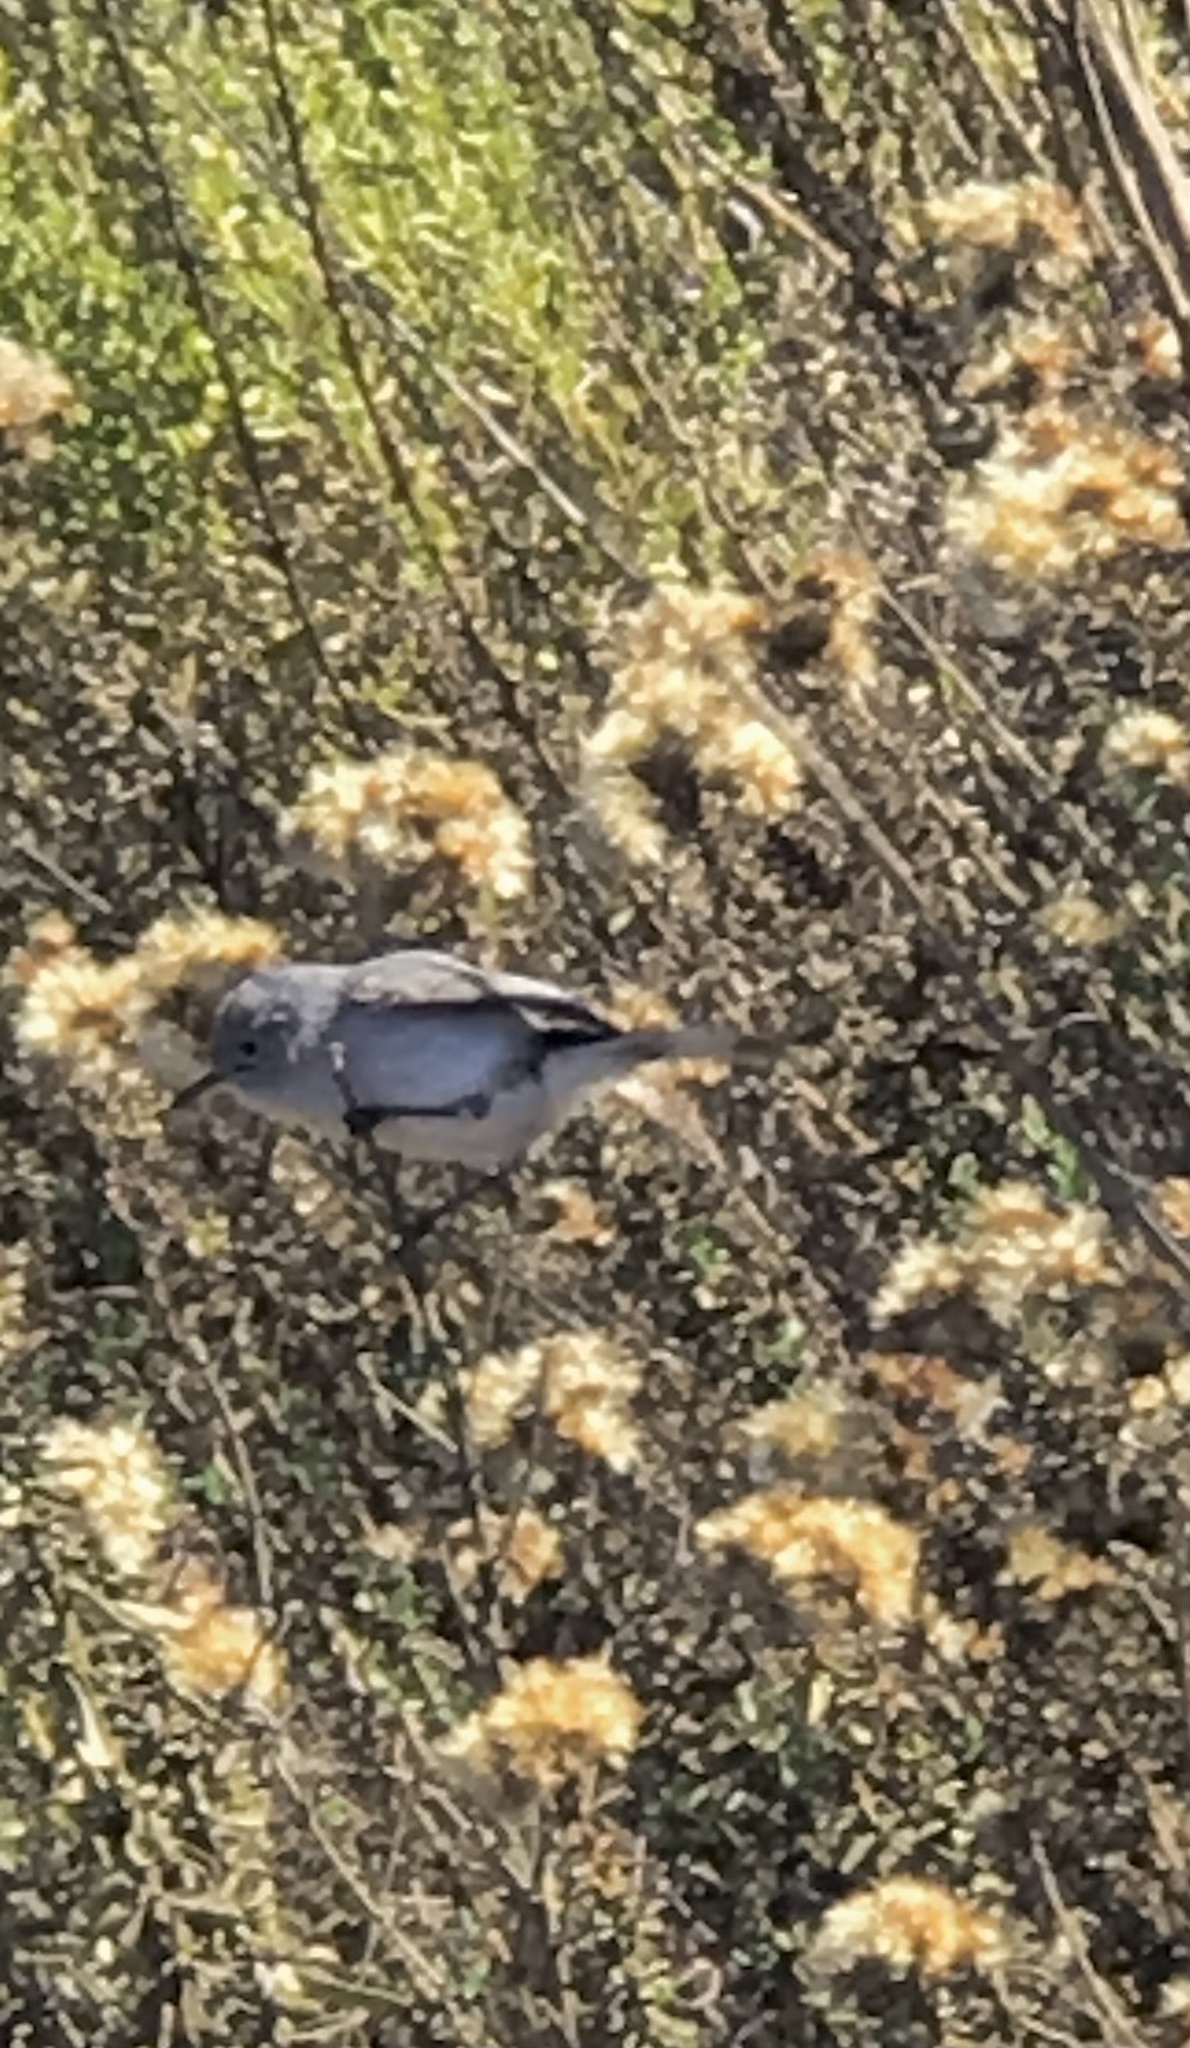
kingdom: Animalia
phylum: Chordata
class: Aves
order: Passeriformes
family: Polioptilidae
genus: Polioptila
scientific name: Polioptila caerulea
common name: Blue-gray gnatcatcher
